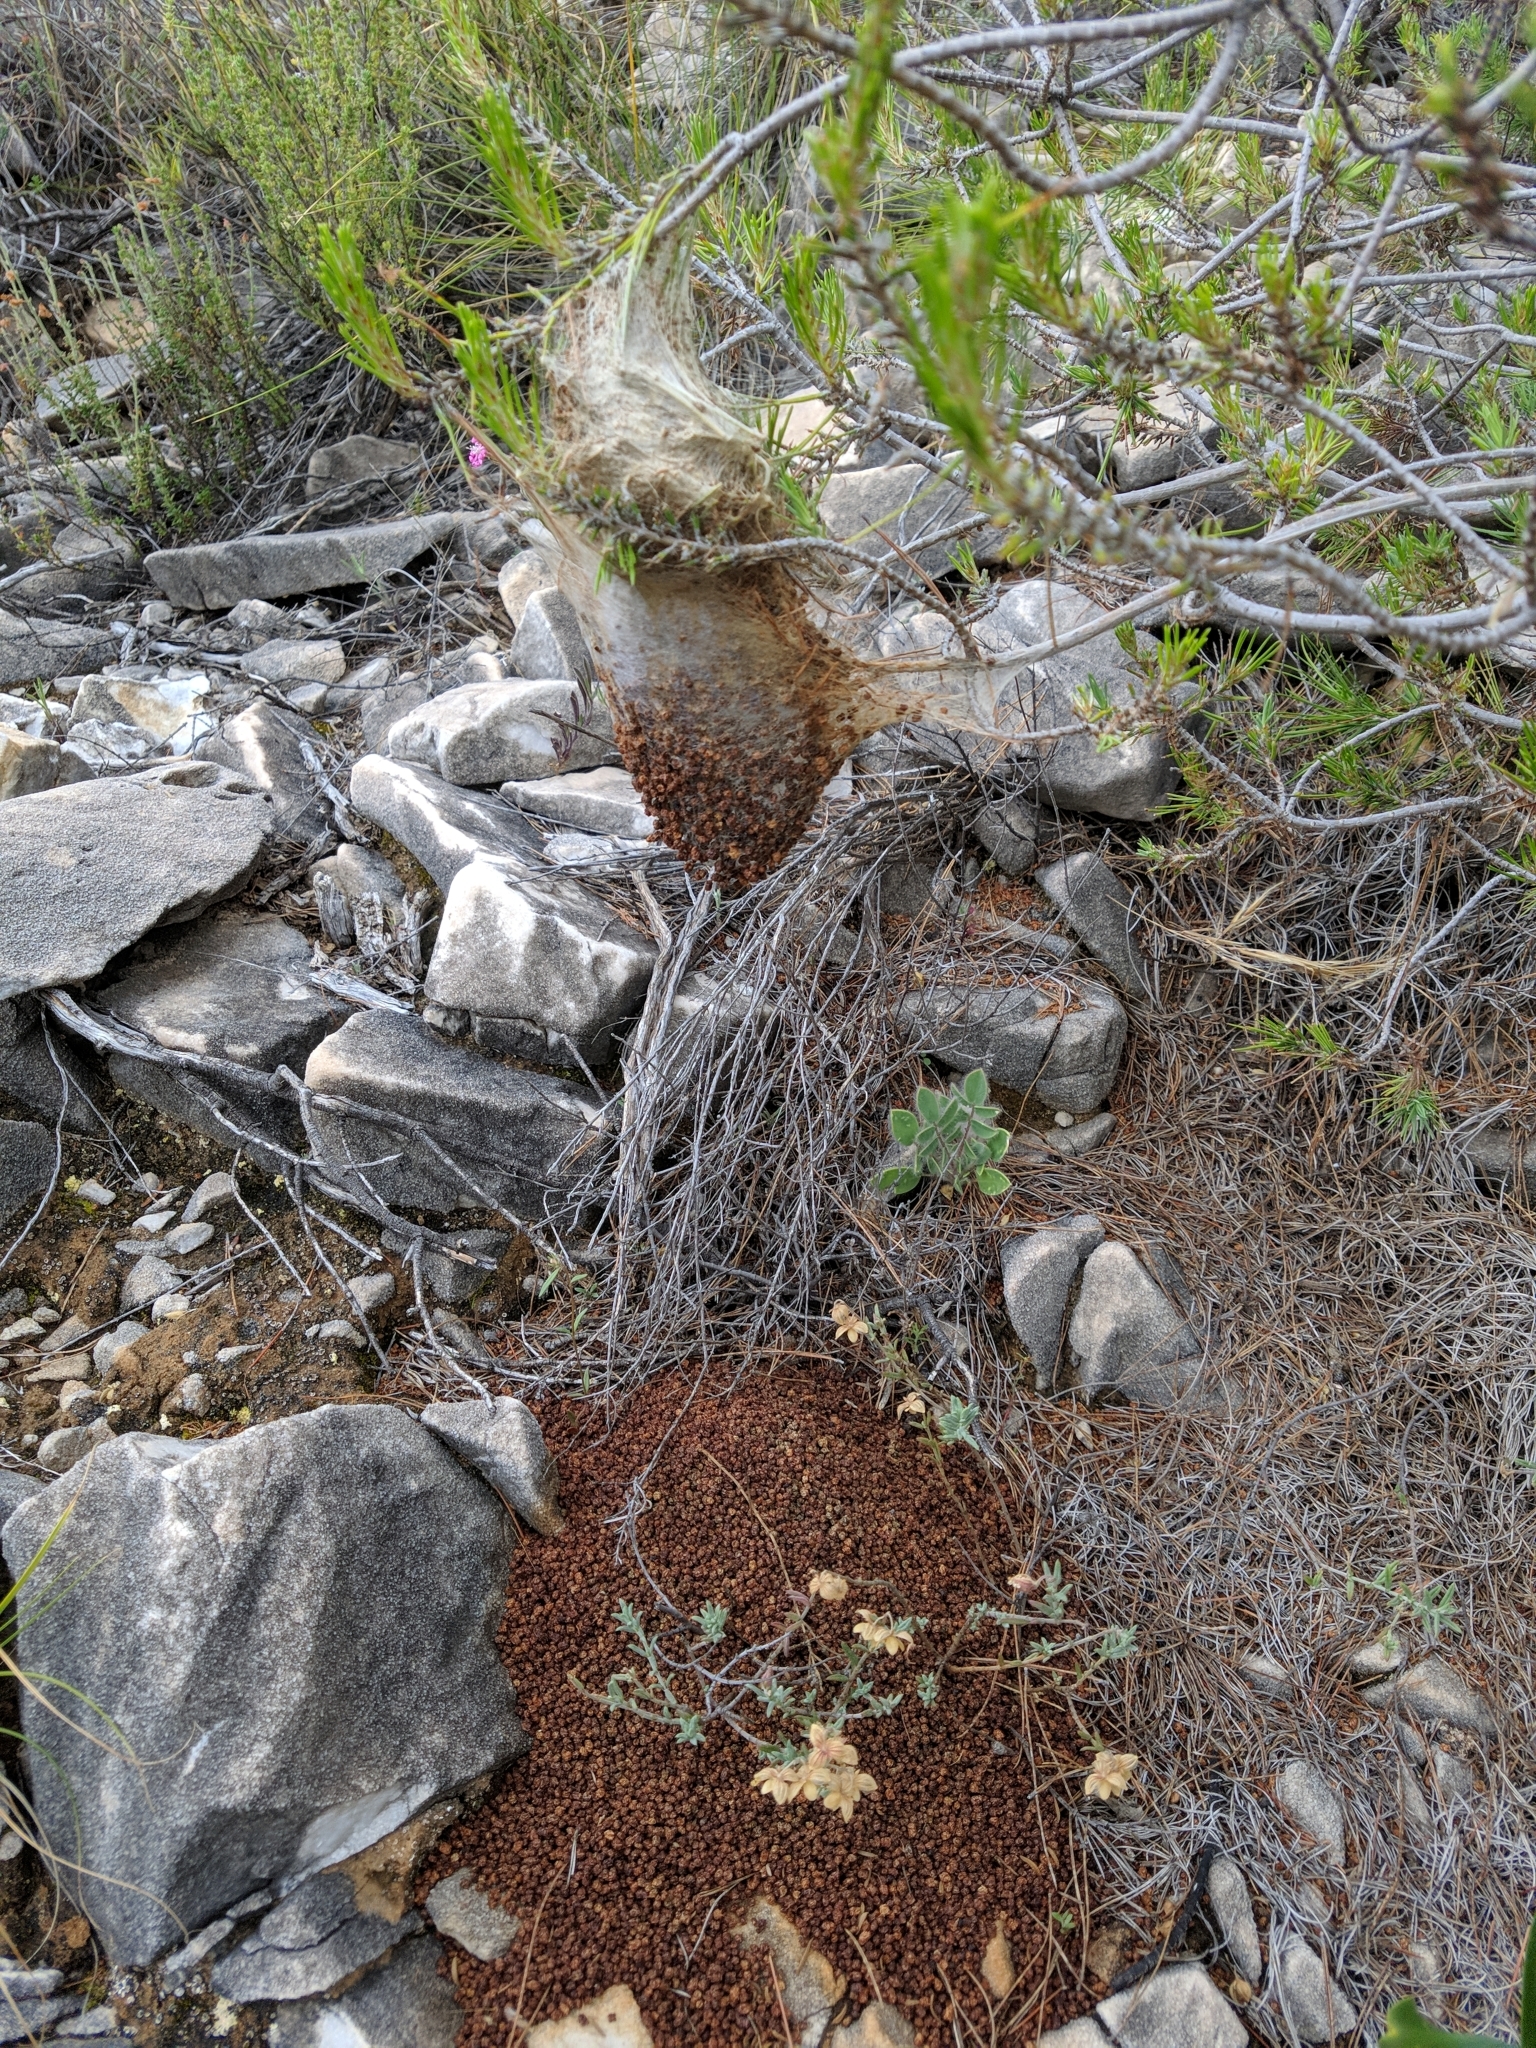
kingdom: Animalia
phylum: Arthropoda
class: Insecta
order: Lepidoptera
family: Notodontidae
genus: Thaumetopoea
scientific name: Thaumetopoea pityocampa
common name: Pine processionary
